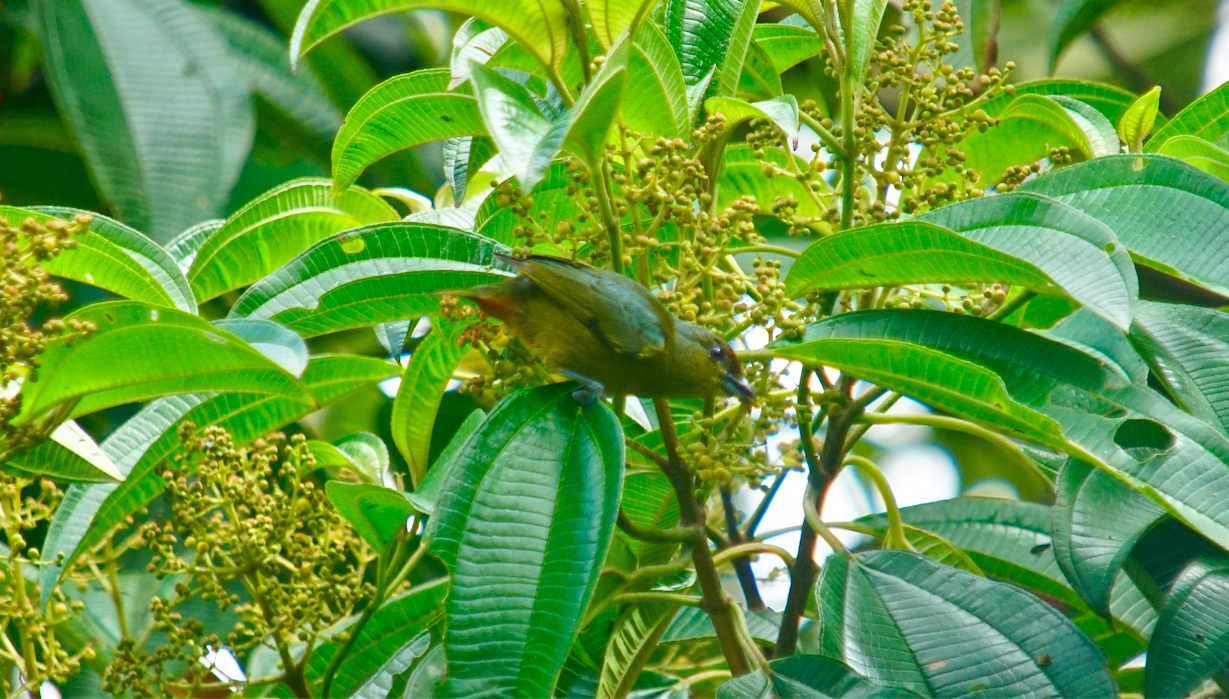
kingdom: Animalia
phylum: Chordata
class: Aves
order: Passeriformes
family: Fringillidae
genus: Euphonia
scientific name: Euphonia gouldi
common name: Olive-backed euphonia
